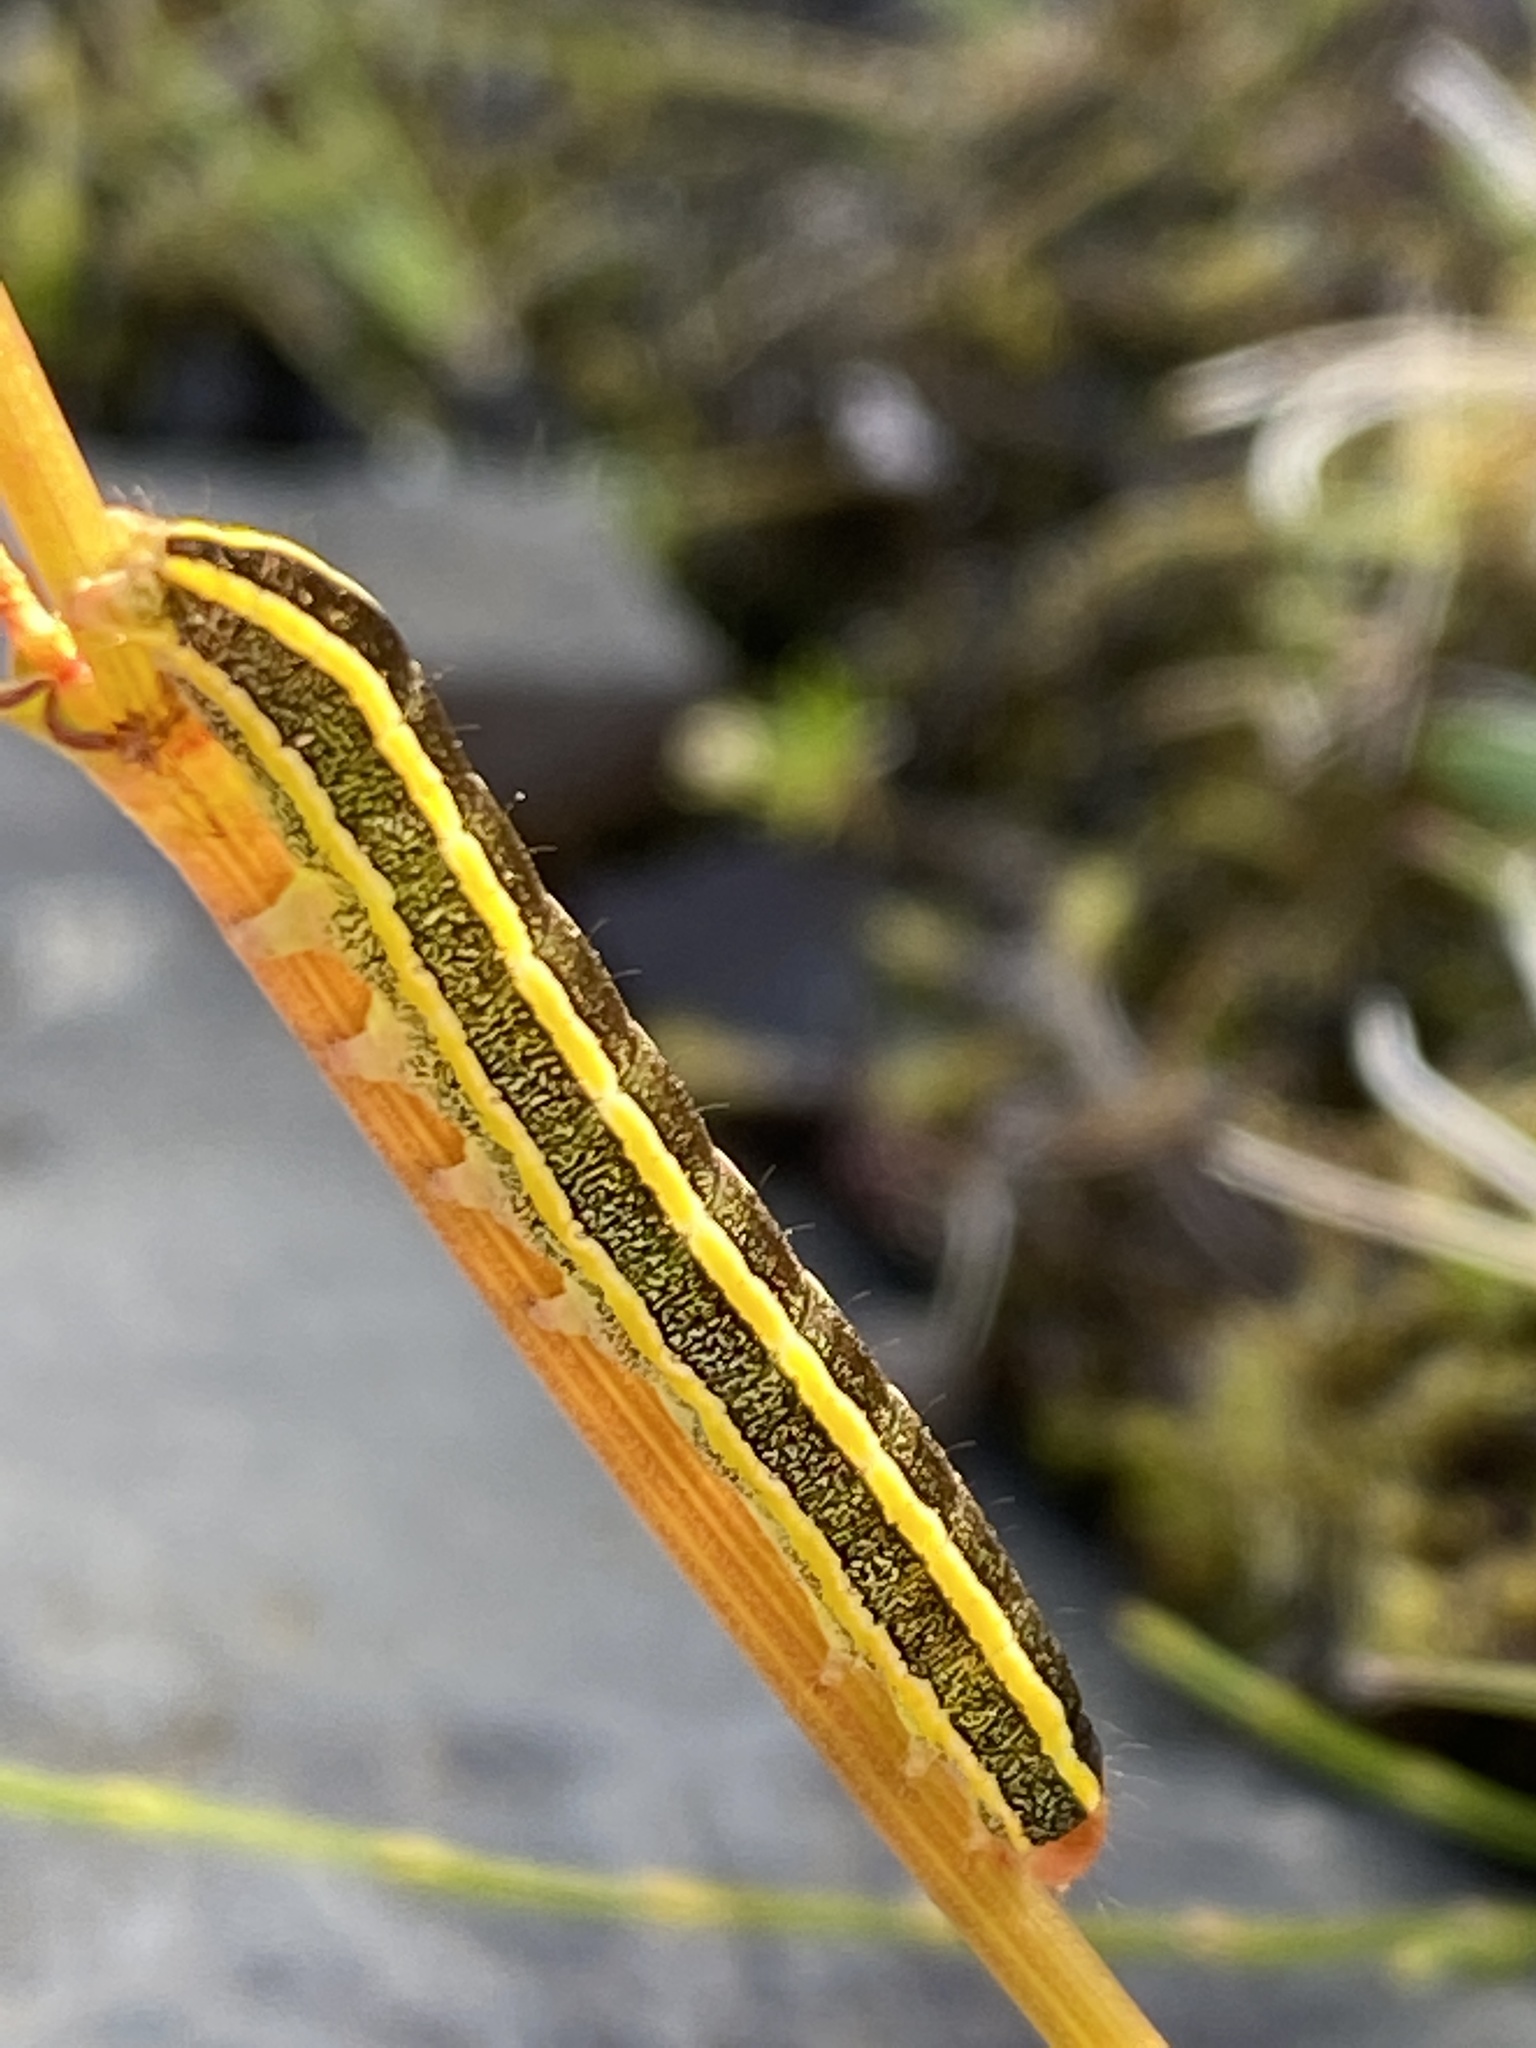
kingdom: Animalia
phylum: Arthropoda
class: Insecta
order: Lepidoptera
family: Noctuidae
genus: Ceramica
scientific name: Ceramica pisi
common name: Broom moth
